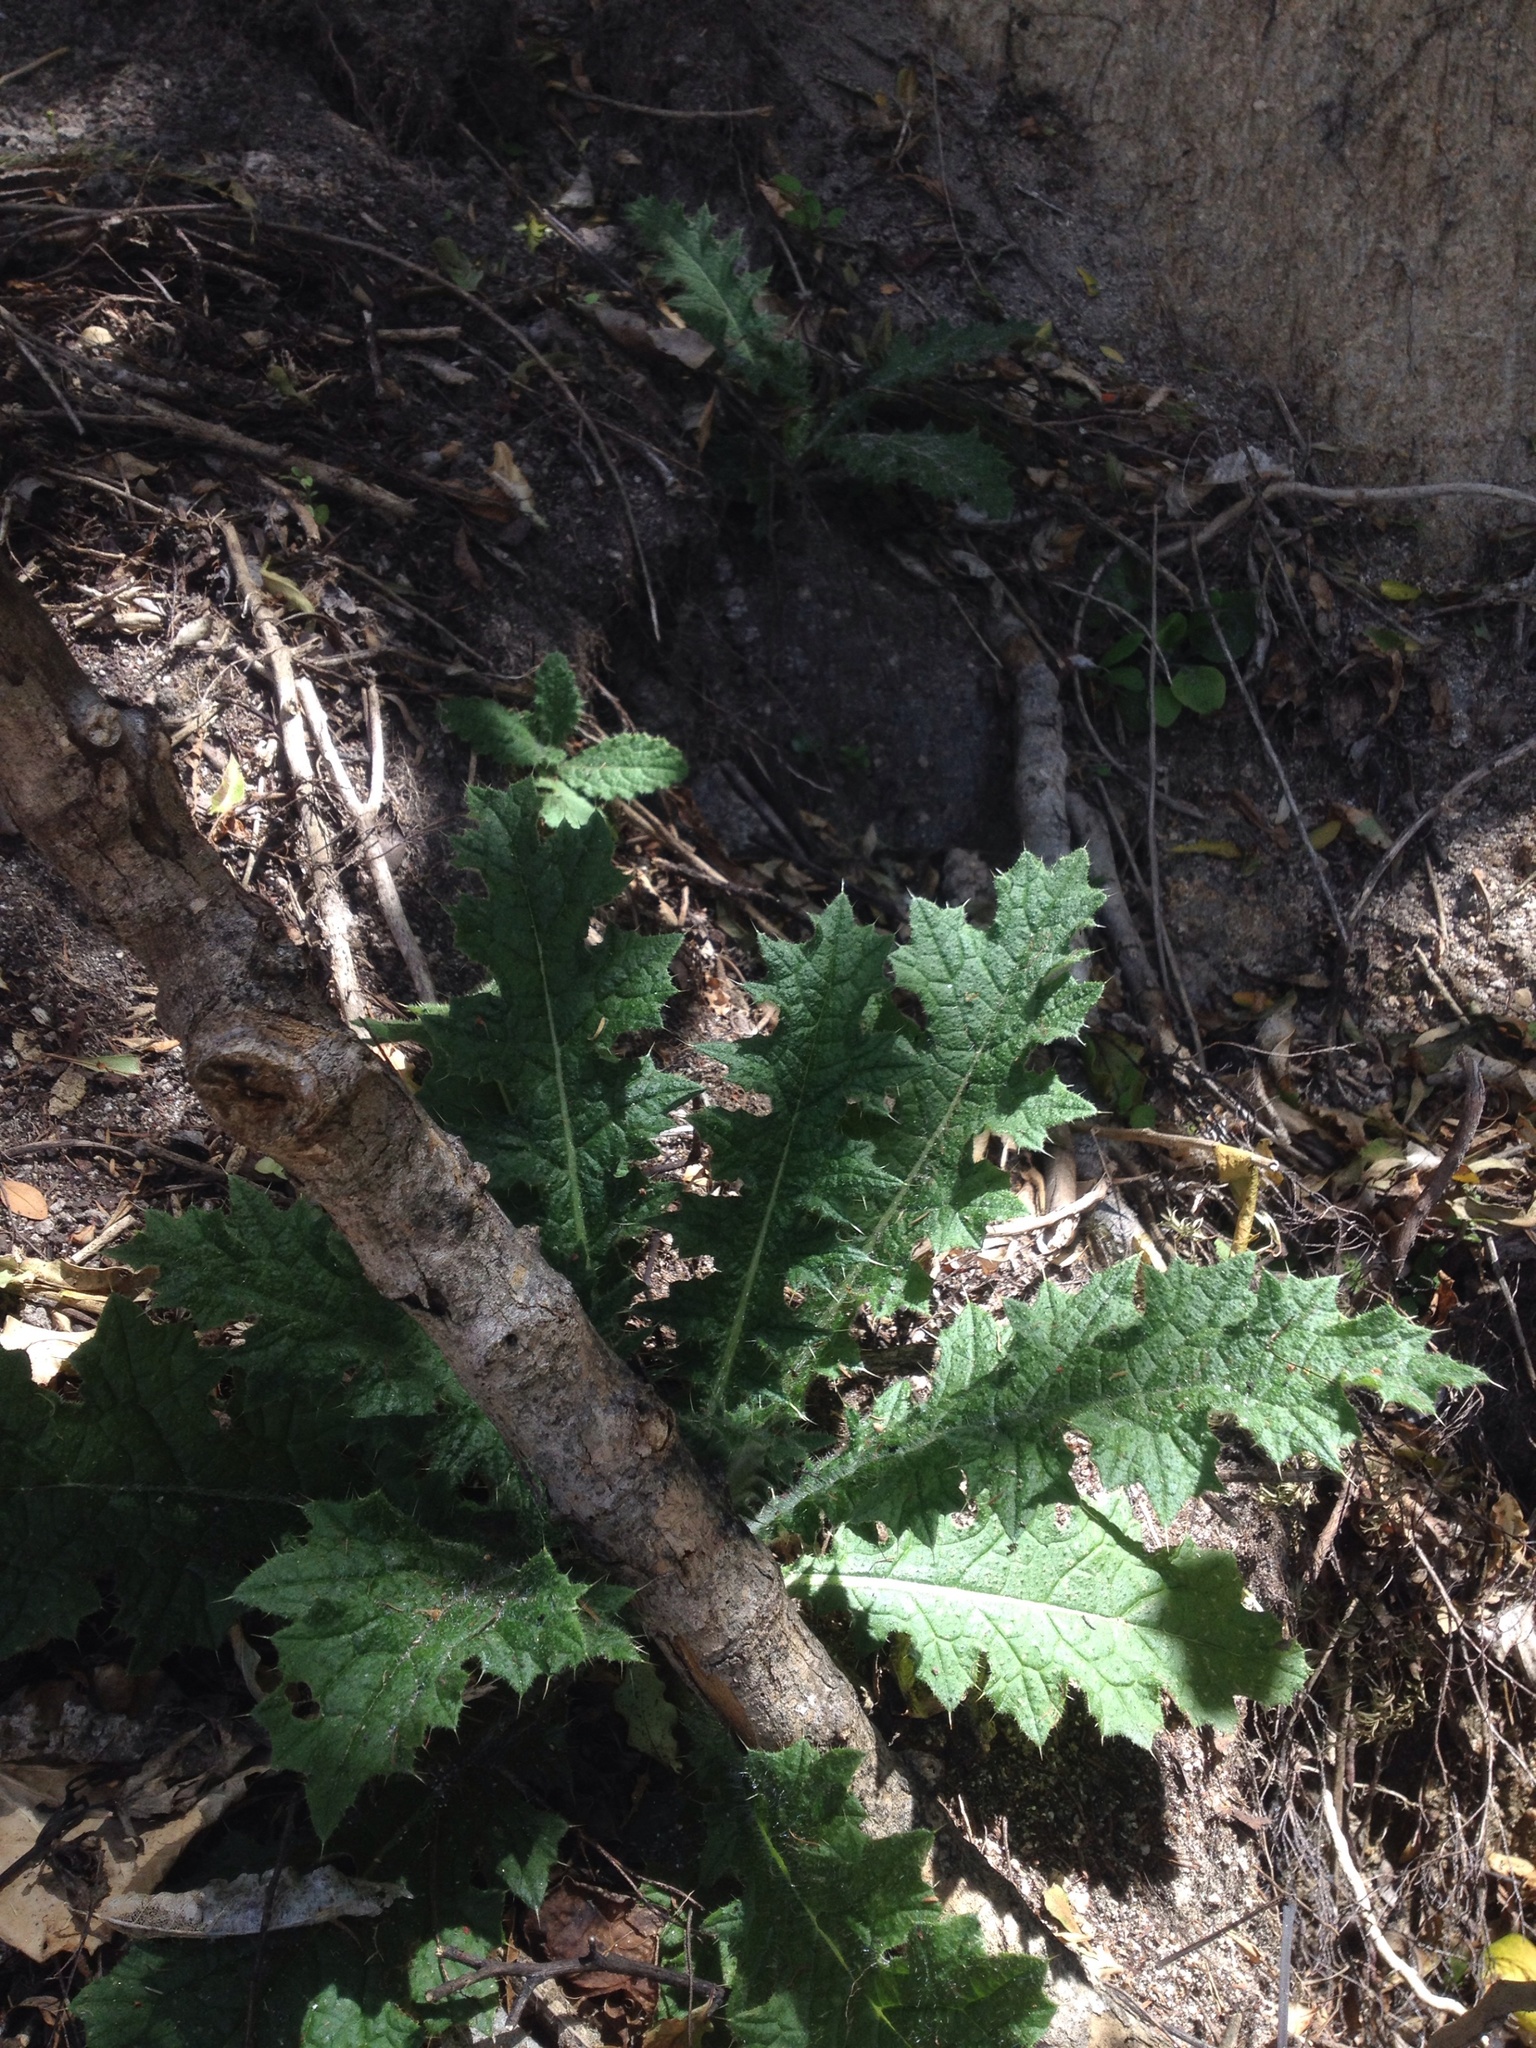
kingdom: Plantae
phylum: Tracheophyta
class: Magnoliopsida
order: Asterales
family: Asteraceae
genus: Cirsium
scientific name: Cirsium vulgare
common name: Bull thistle
